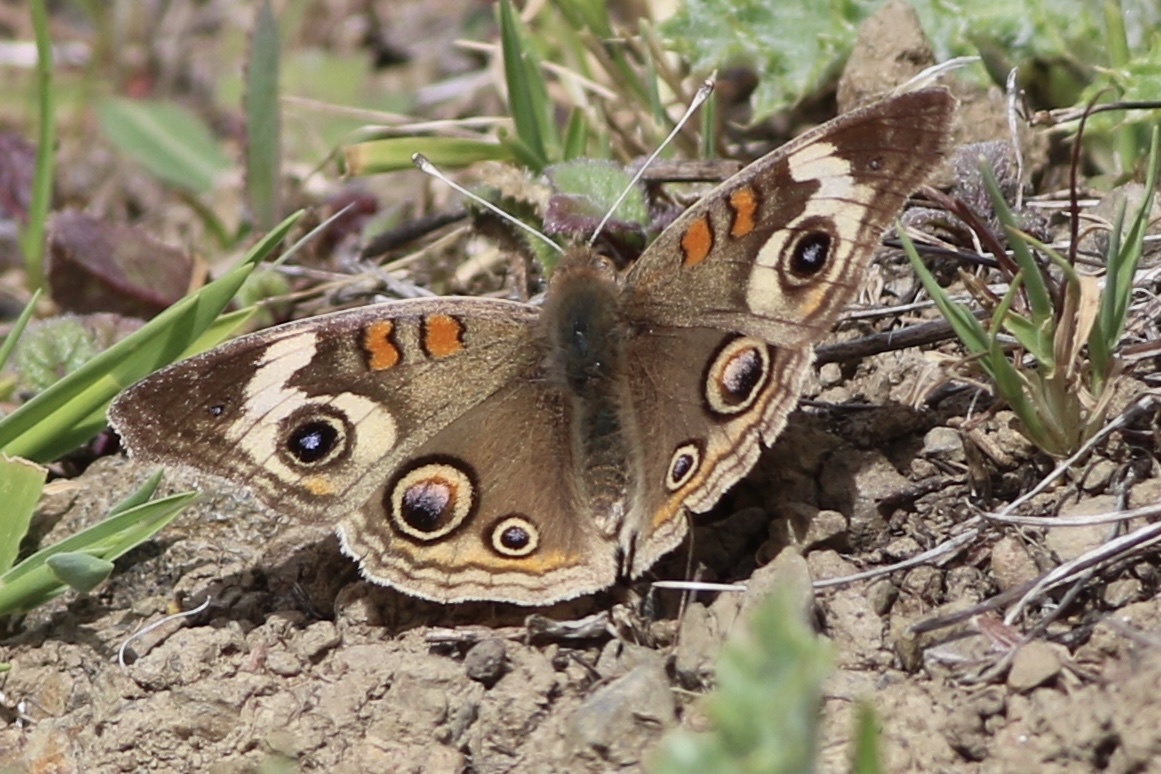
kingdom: Animalia
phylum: Arthropoda
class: Insecta
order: Lepidoptera
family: Nymphalidae
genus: Junonia
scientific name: Junonia grisea
